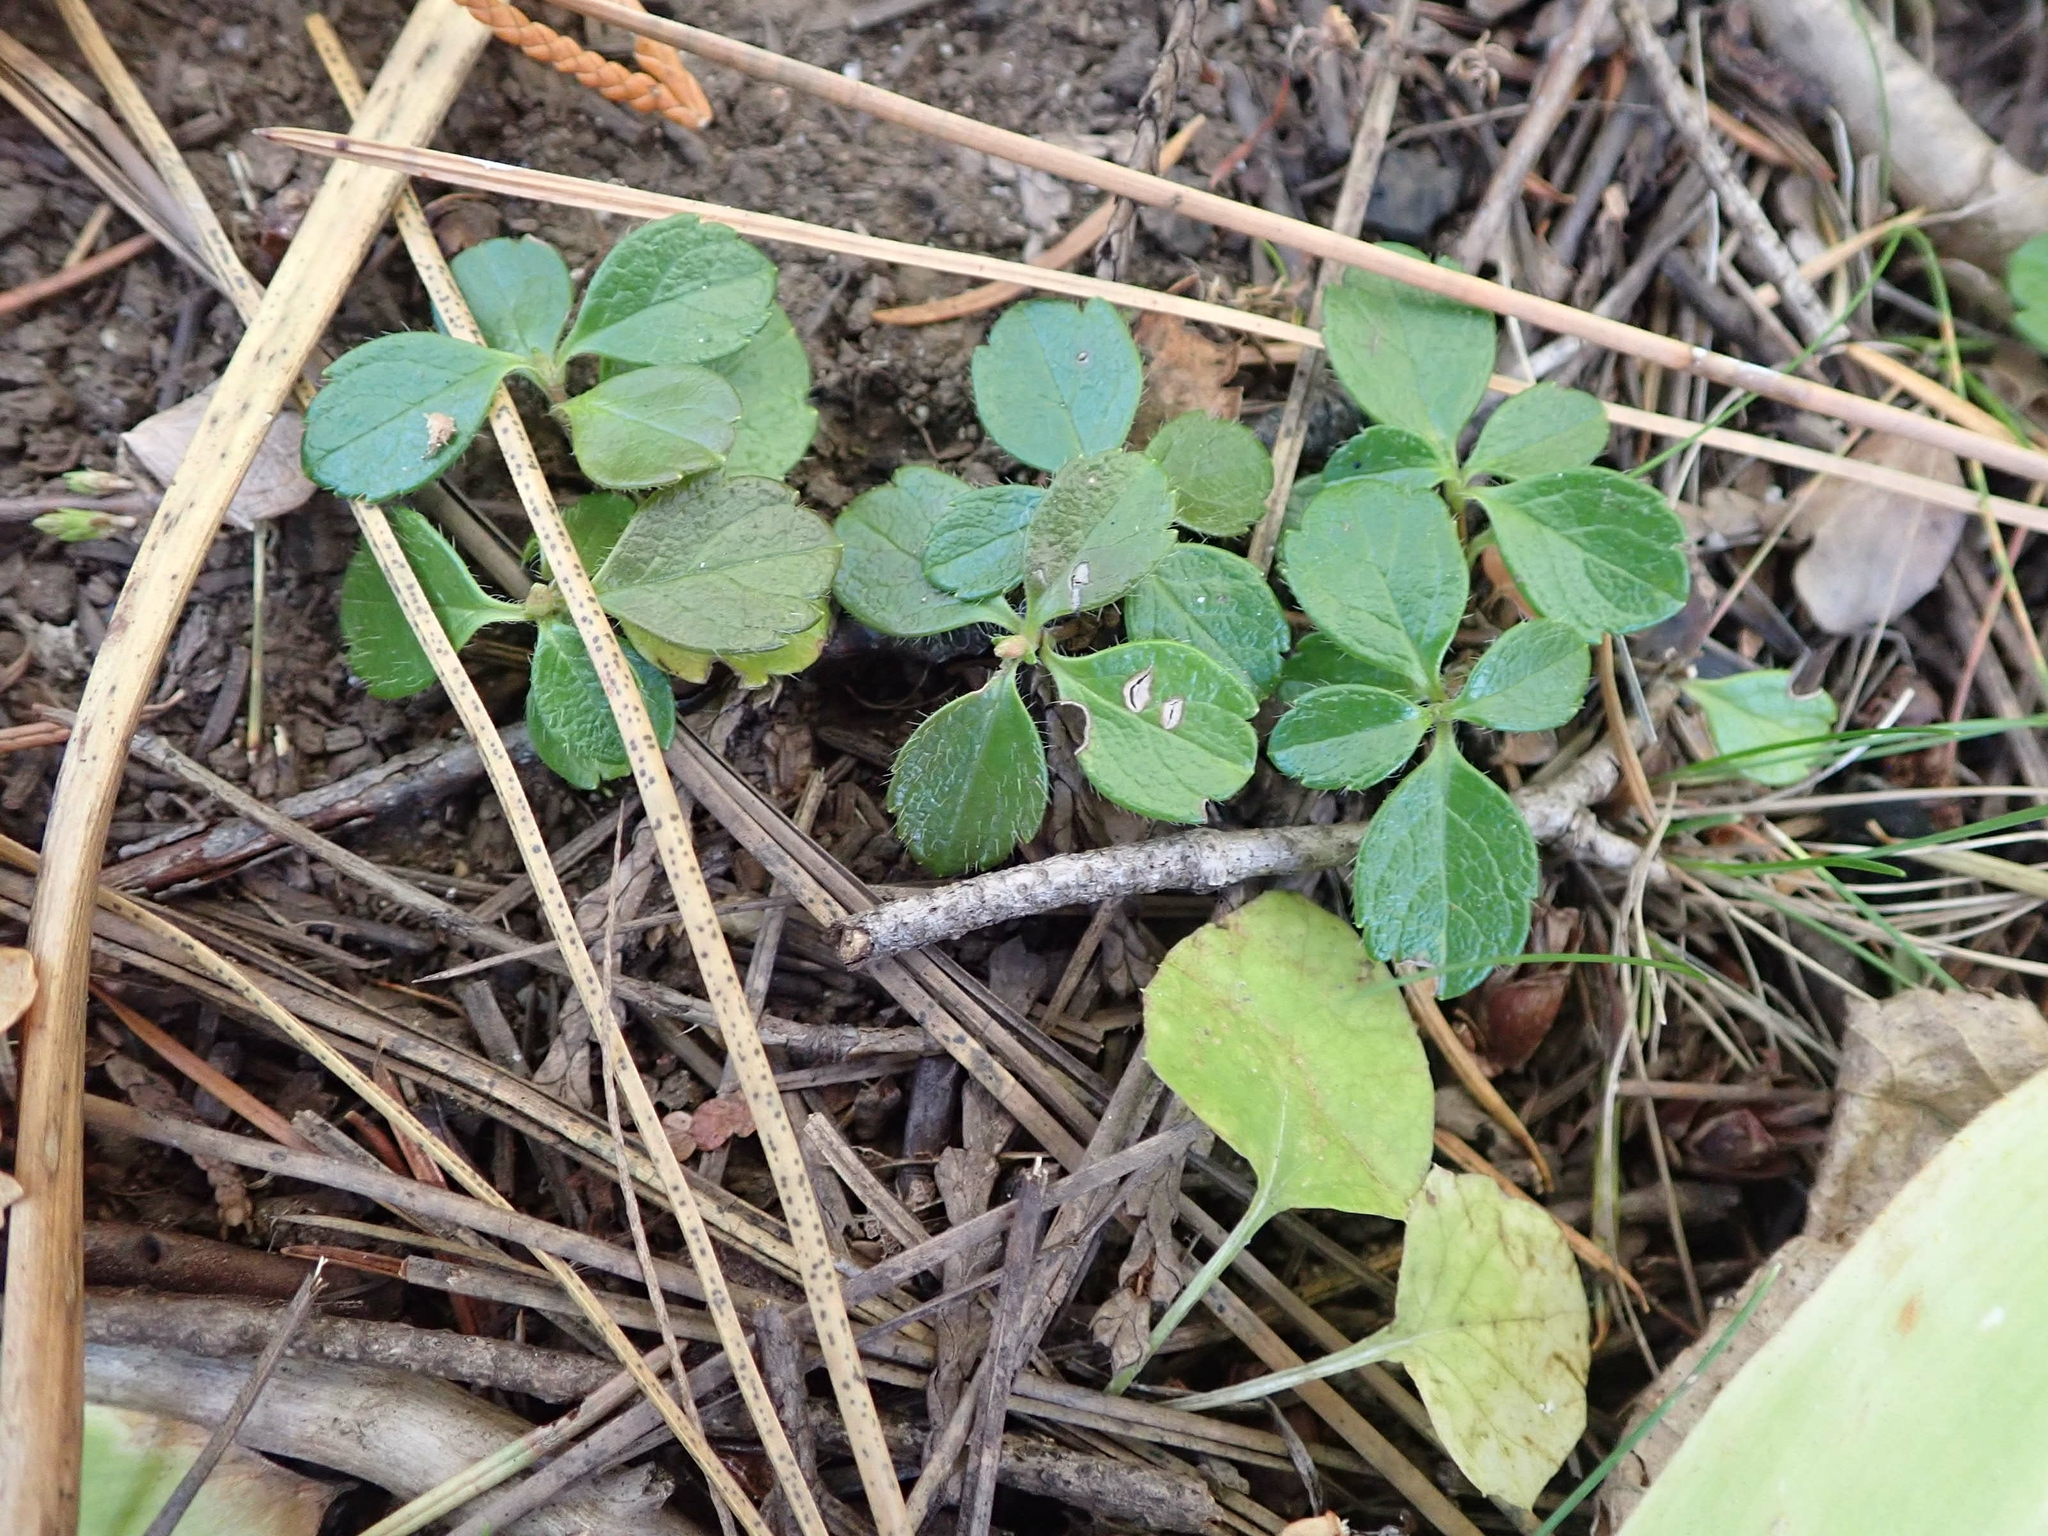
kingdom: Plantae
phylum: Tracheophyta
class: Magnoliopsida
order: Dipsacales
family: Caprifoliaceae
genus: Linnaea
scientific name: Linnaea borealis
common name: Twinflower
